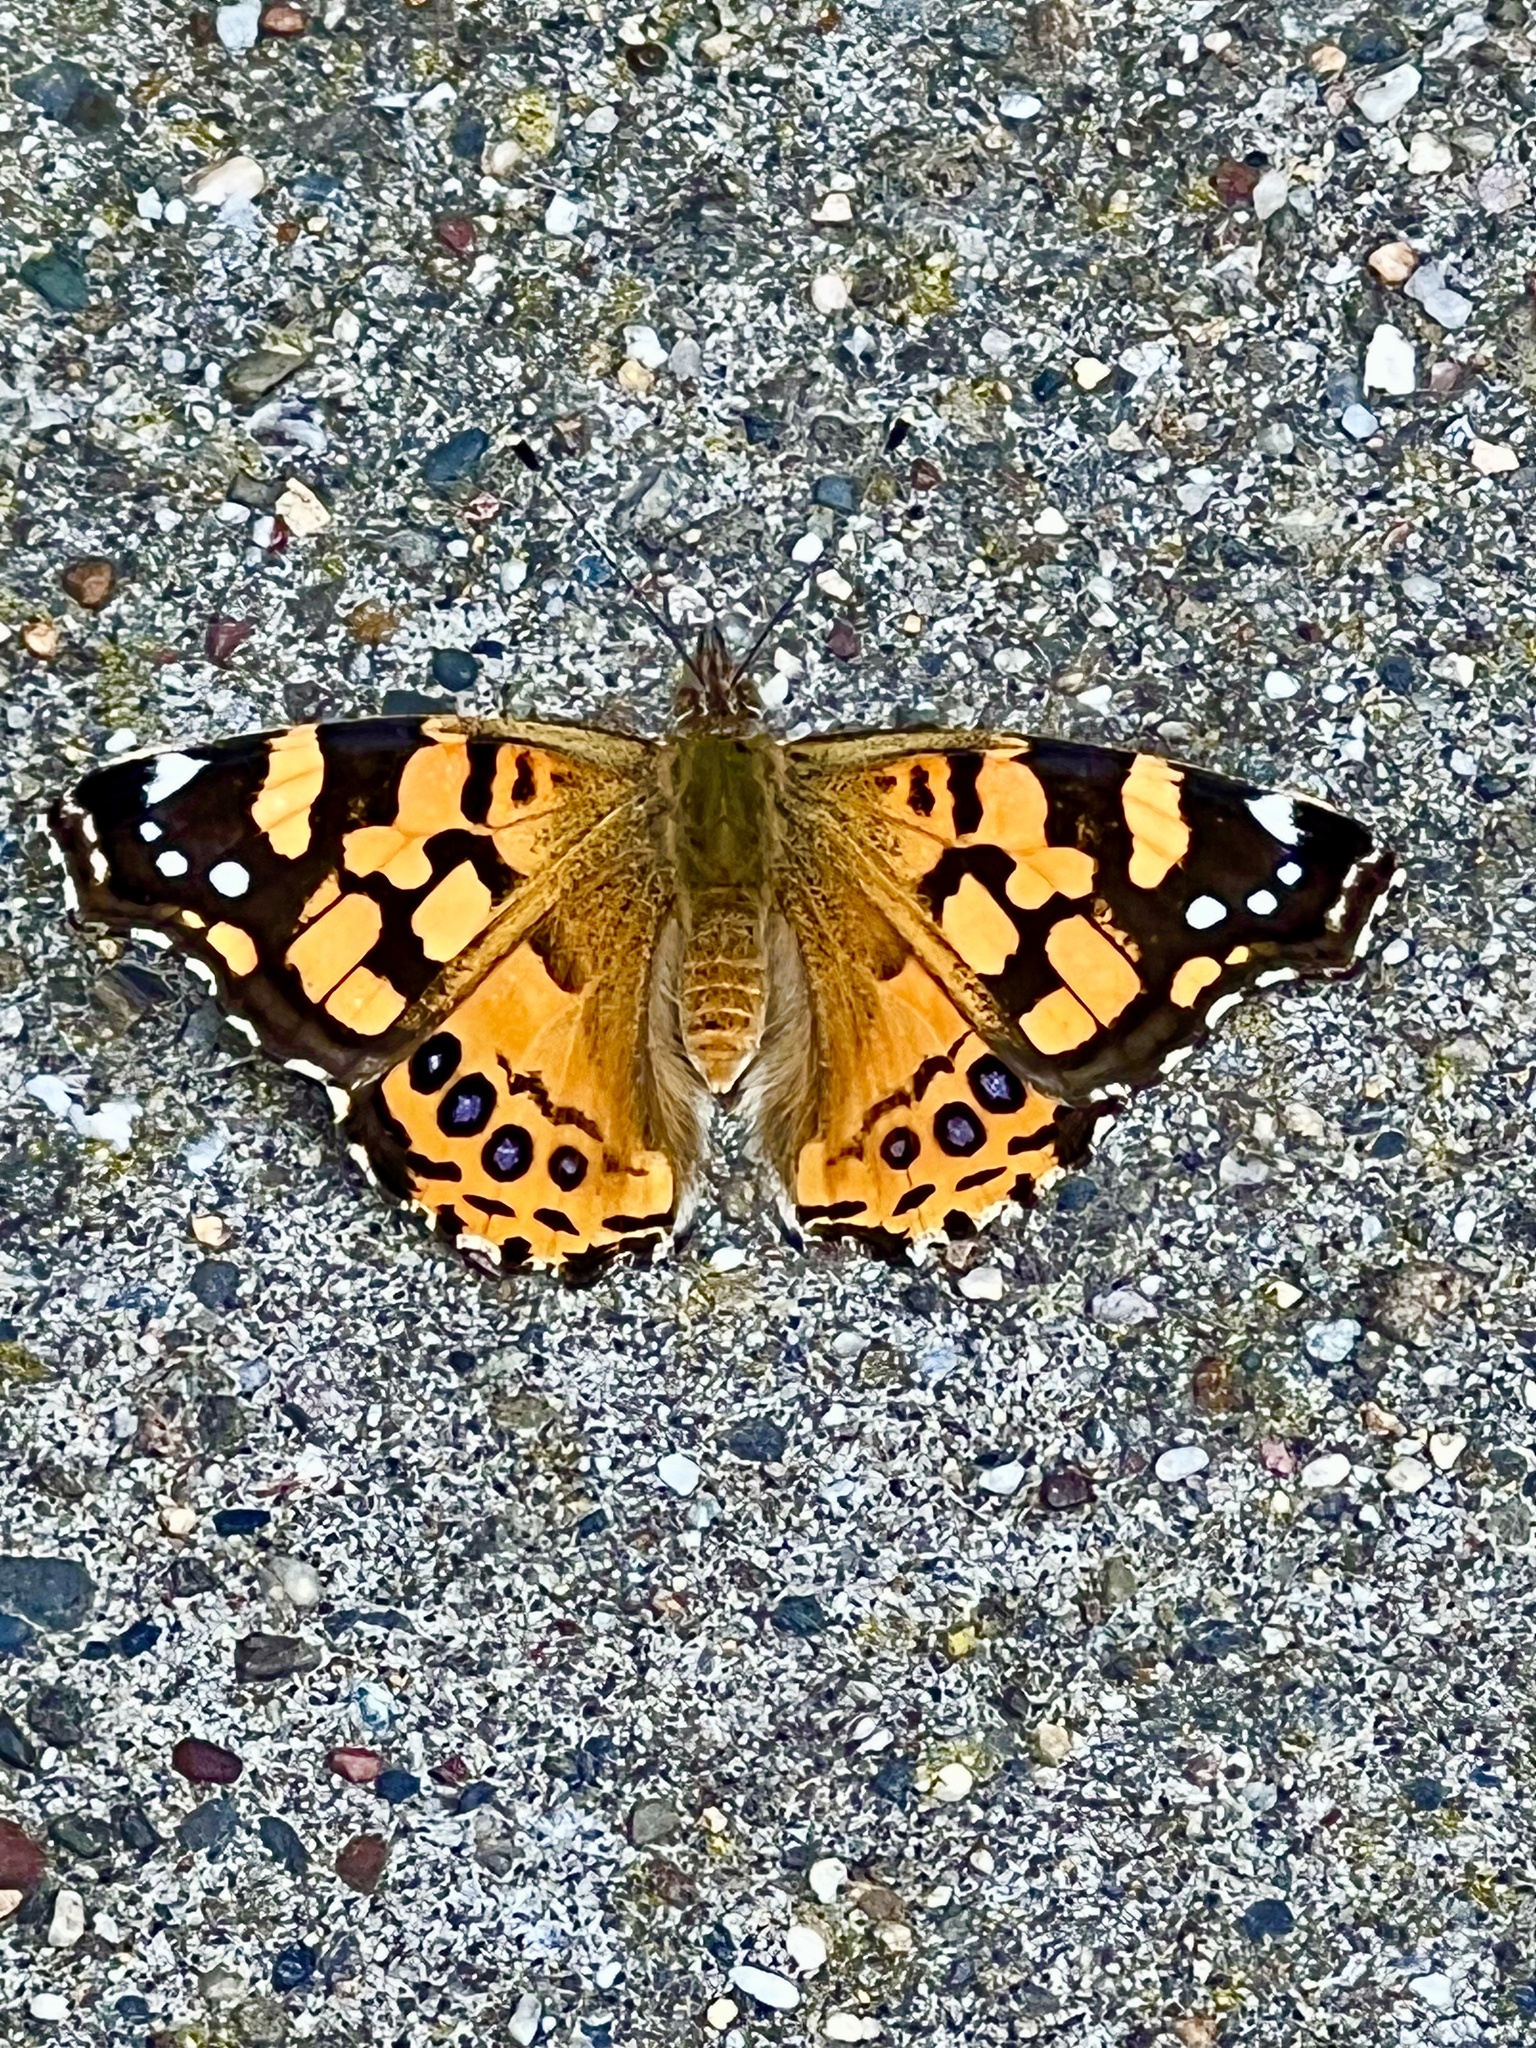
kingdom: Animalia
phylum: Arthropoda
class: Insecta
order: Lepidoptera
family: Nymphalidae
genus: Vanessa
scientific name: Vanessa annabella
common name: West coast lady
